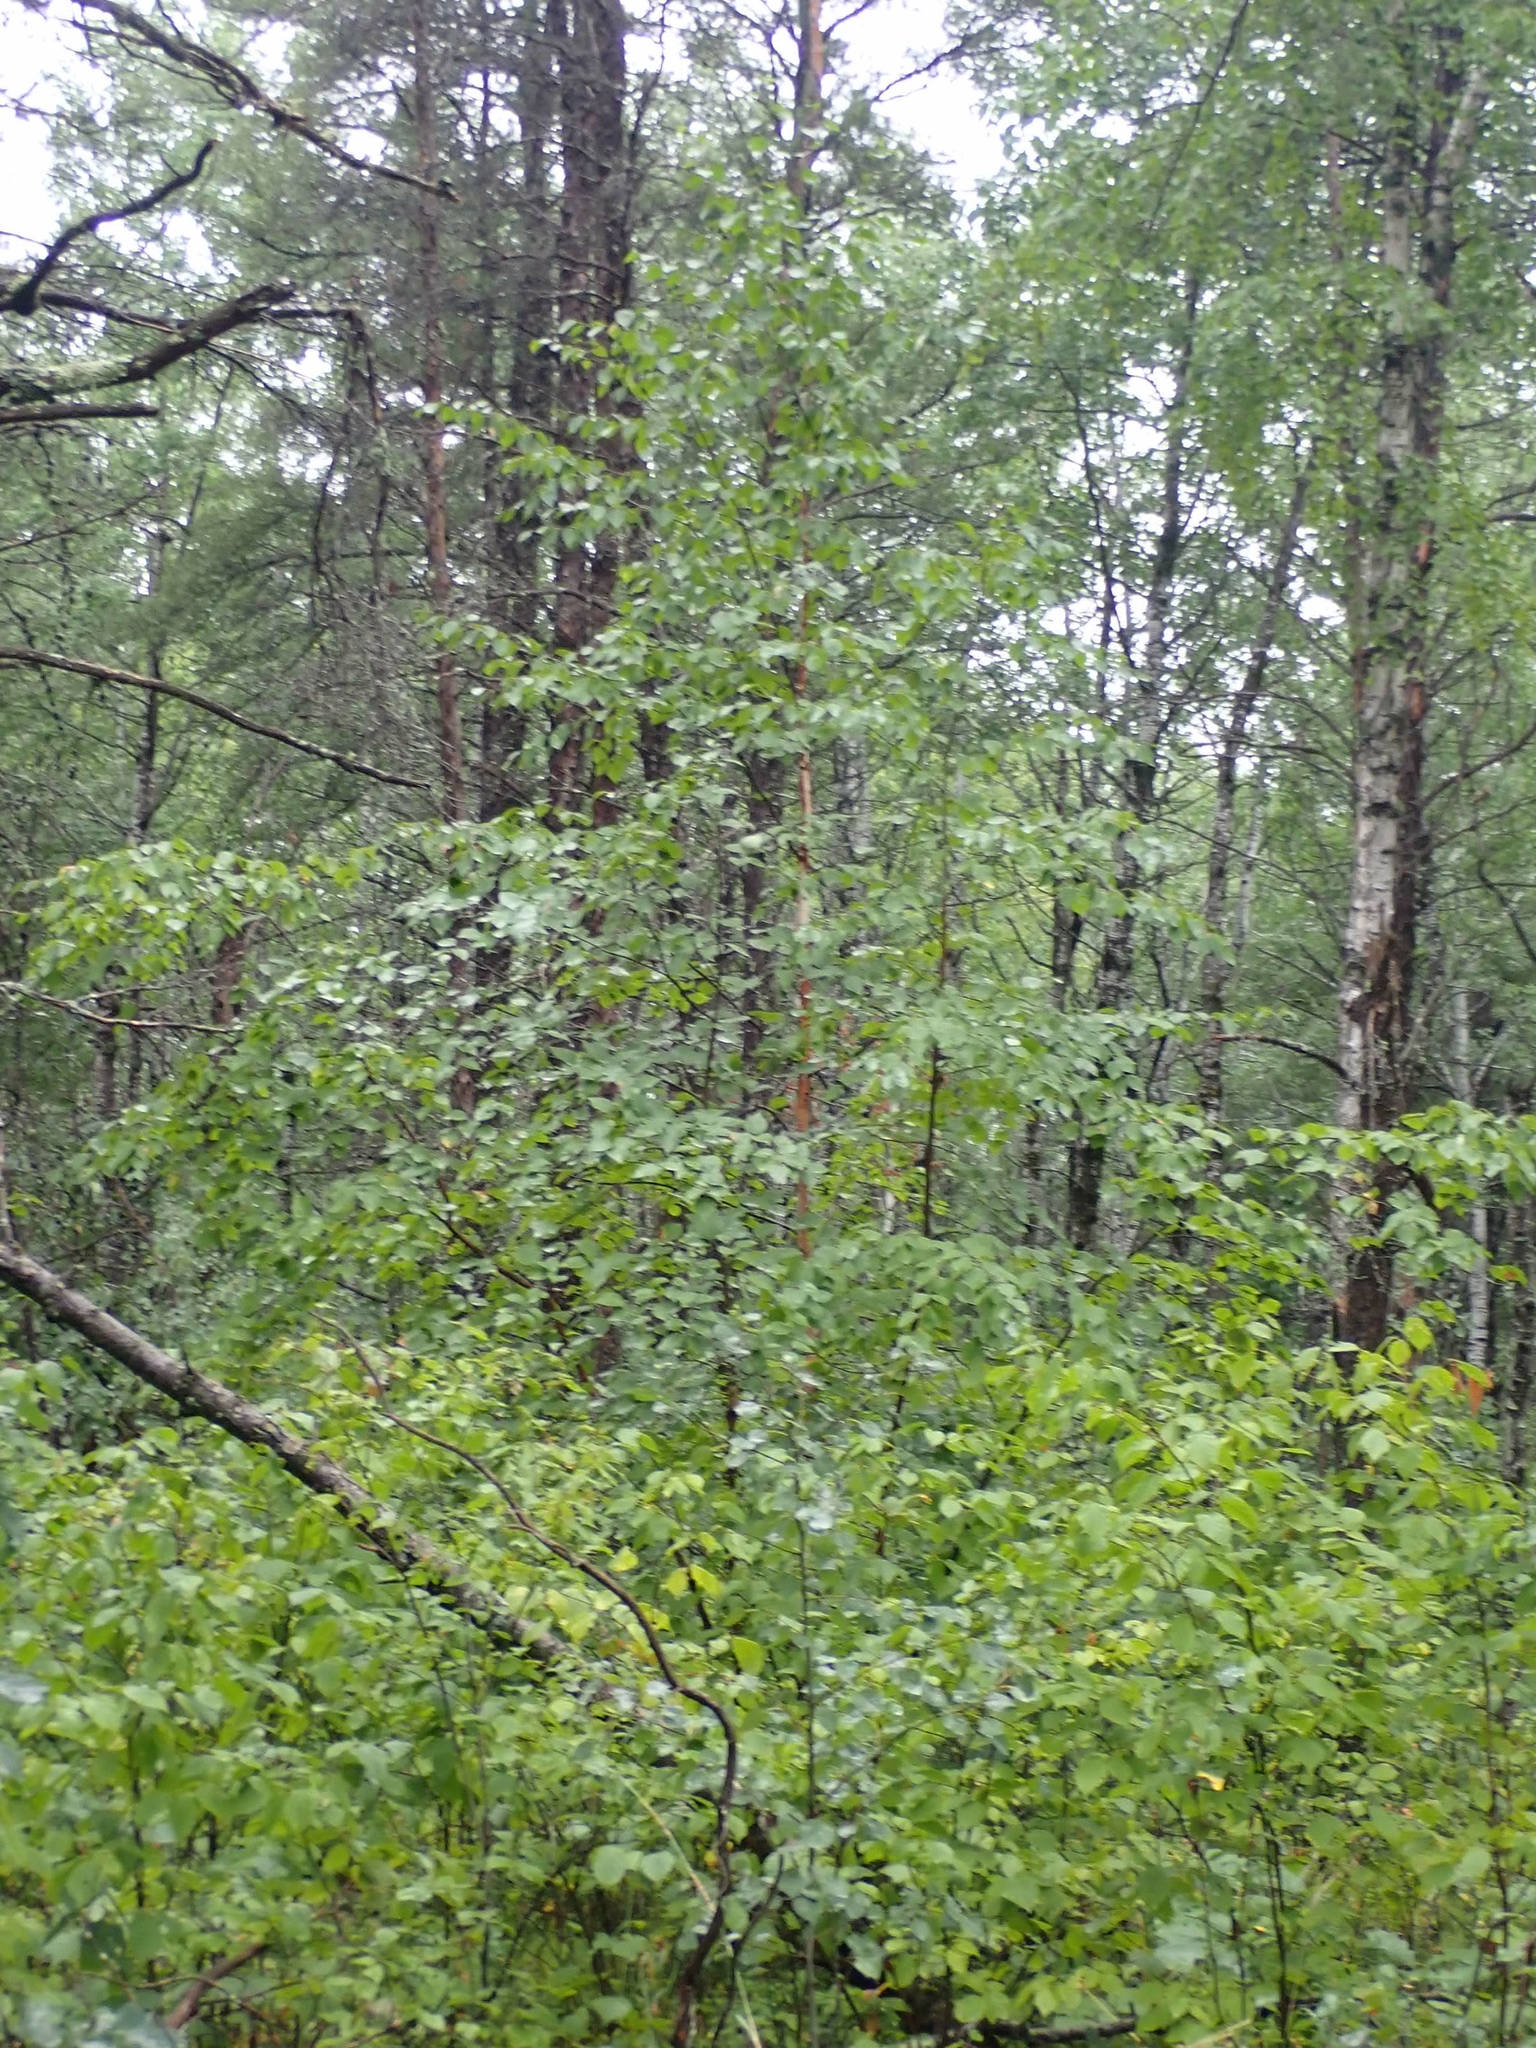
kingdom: Plantae
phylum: Tracheophyta
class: Magnoliopsida
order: Fagales
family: Betulaceae
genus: Betula
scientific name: Betula papyrifera
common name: Paper birch
